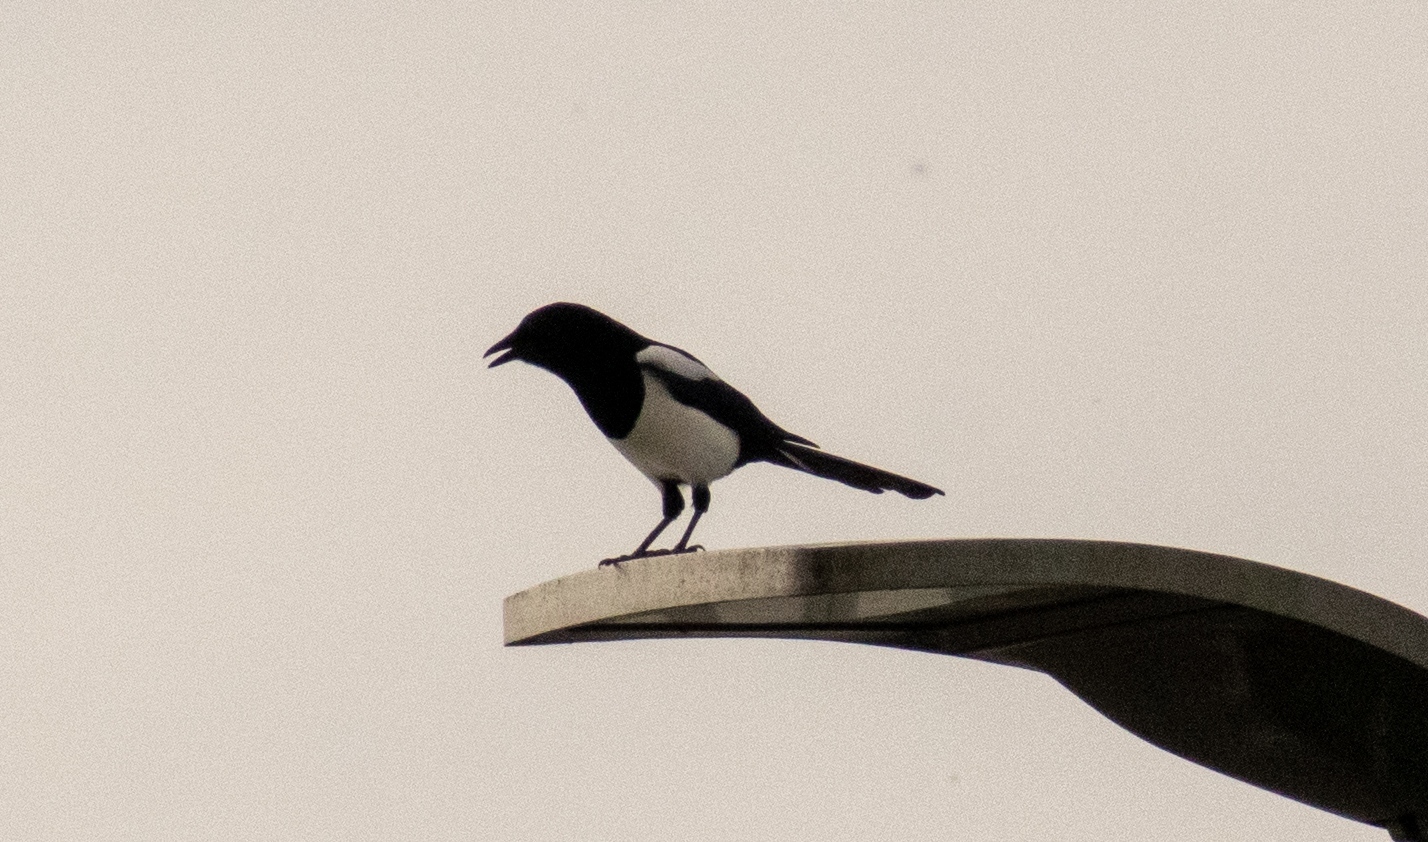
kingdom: Animalia
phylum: Chordata
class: Aves
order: Passeriformes
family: Corvidae
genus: Pica
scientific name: Pica pica
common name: Eurasian magpie
